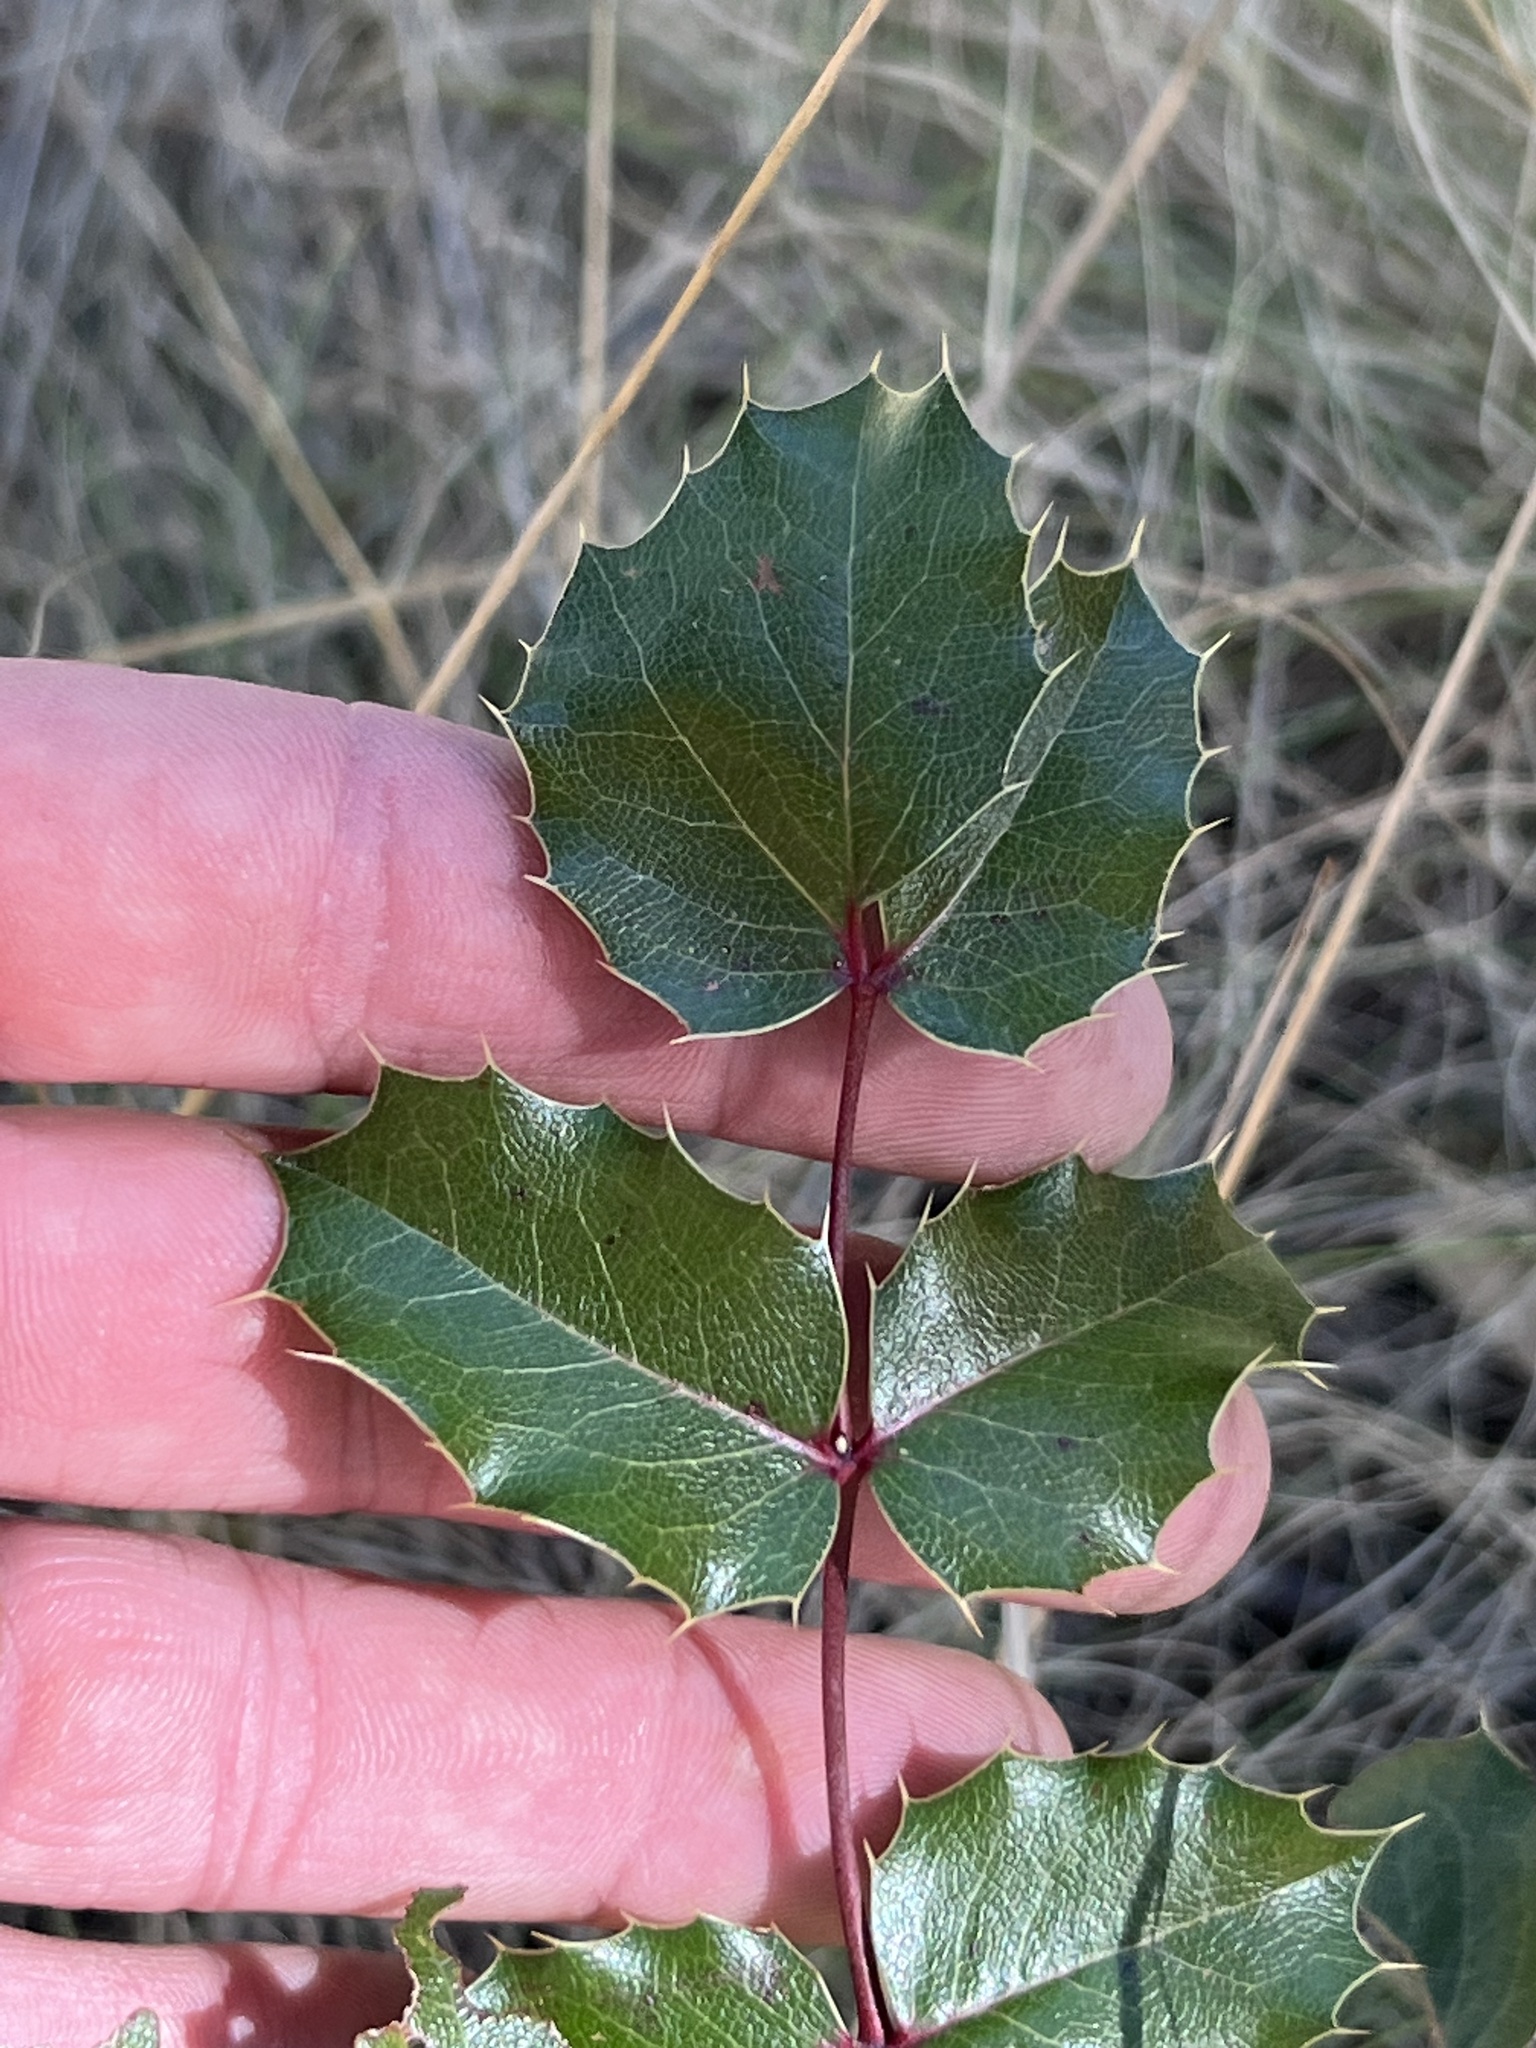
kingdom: Plantae
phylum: Tracheophyta
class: Magnoliopsida
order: Ranunculales
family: Berberidaceae
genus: Mahonia
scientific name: Mahonia wilcoxii
